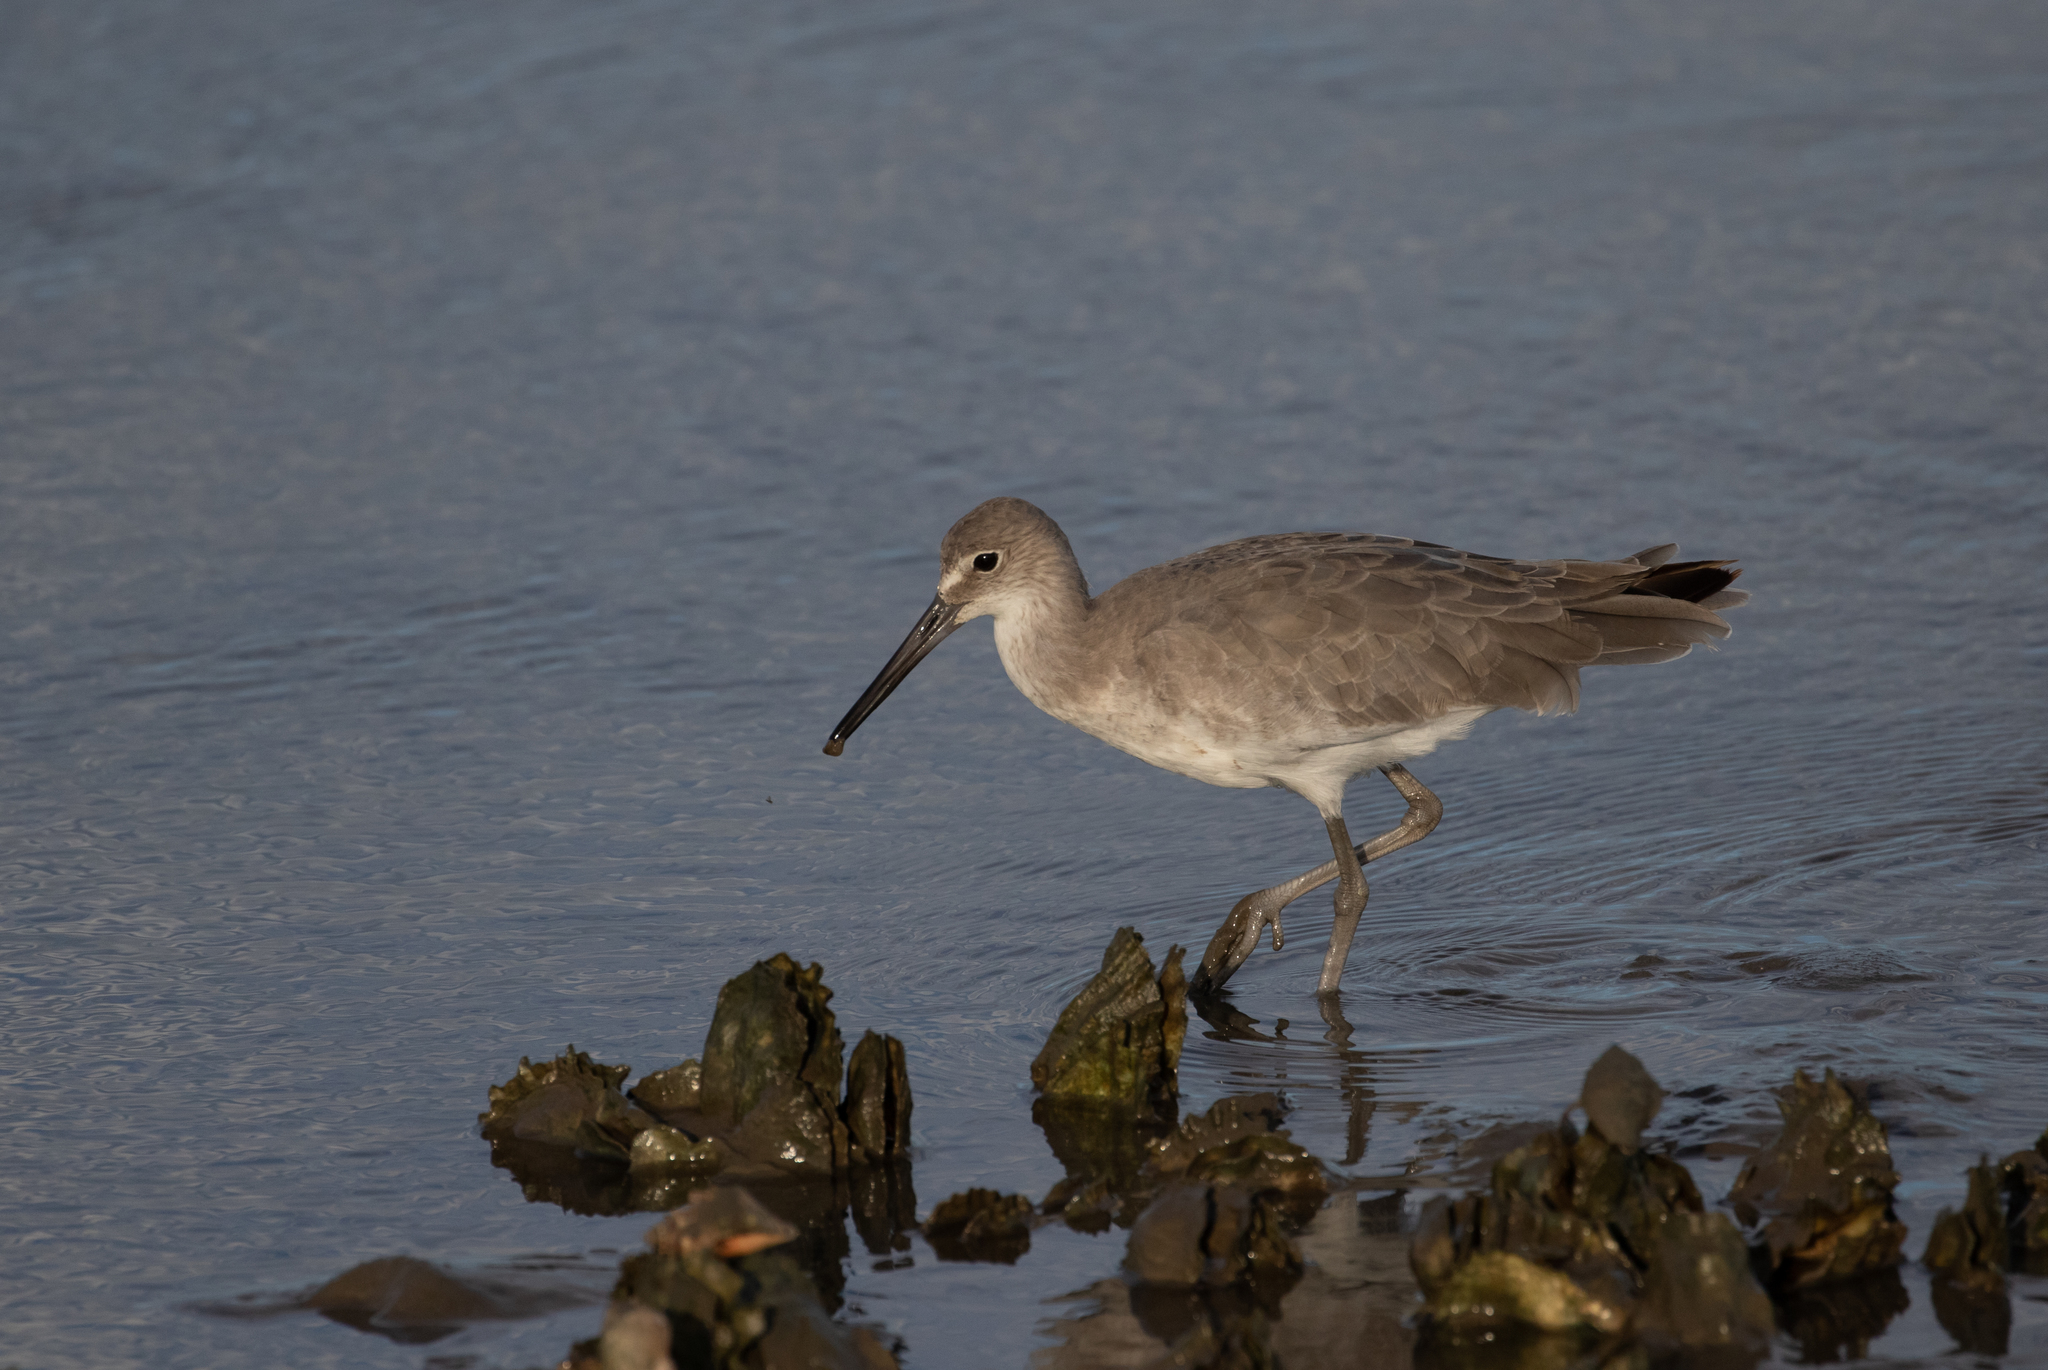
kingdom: Animalia
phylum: Chordata
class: Aves
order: Charadriiformes
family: Scolopacidae
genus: Tringa
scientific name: Tringa semipalmata
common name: Willet
